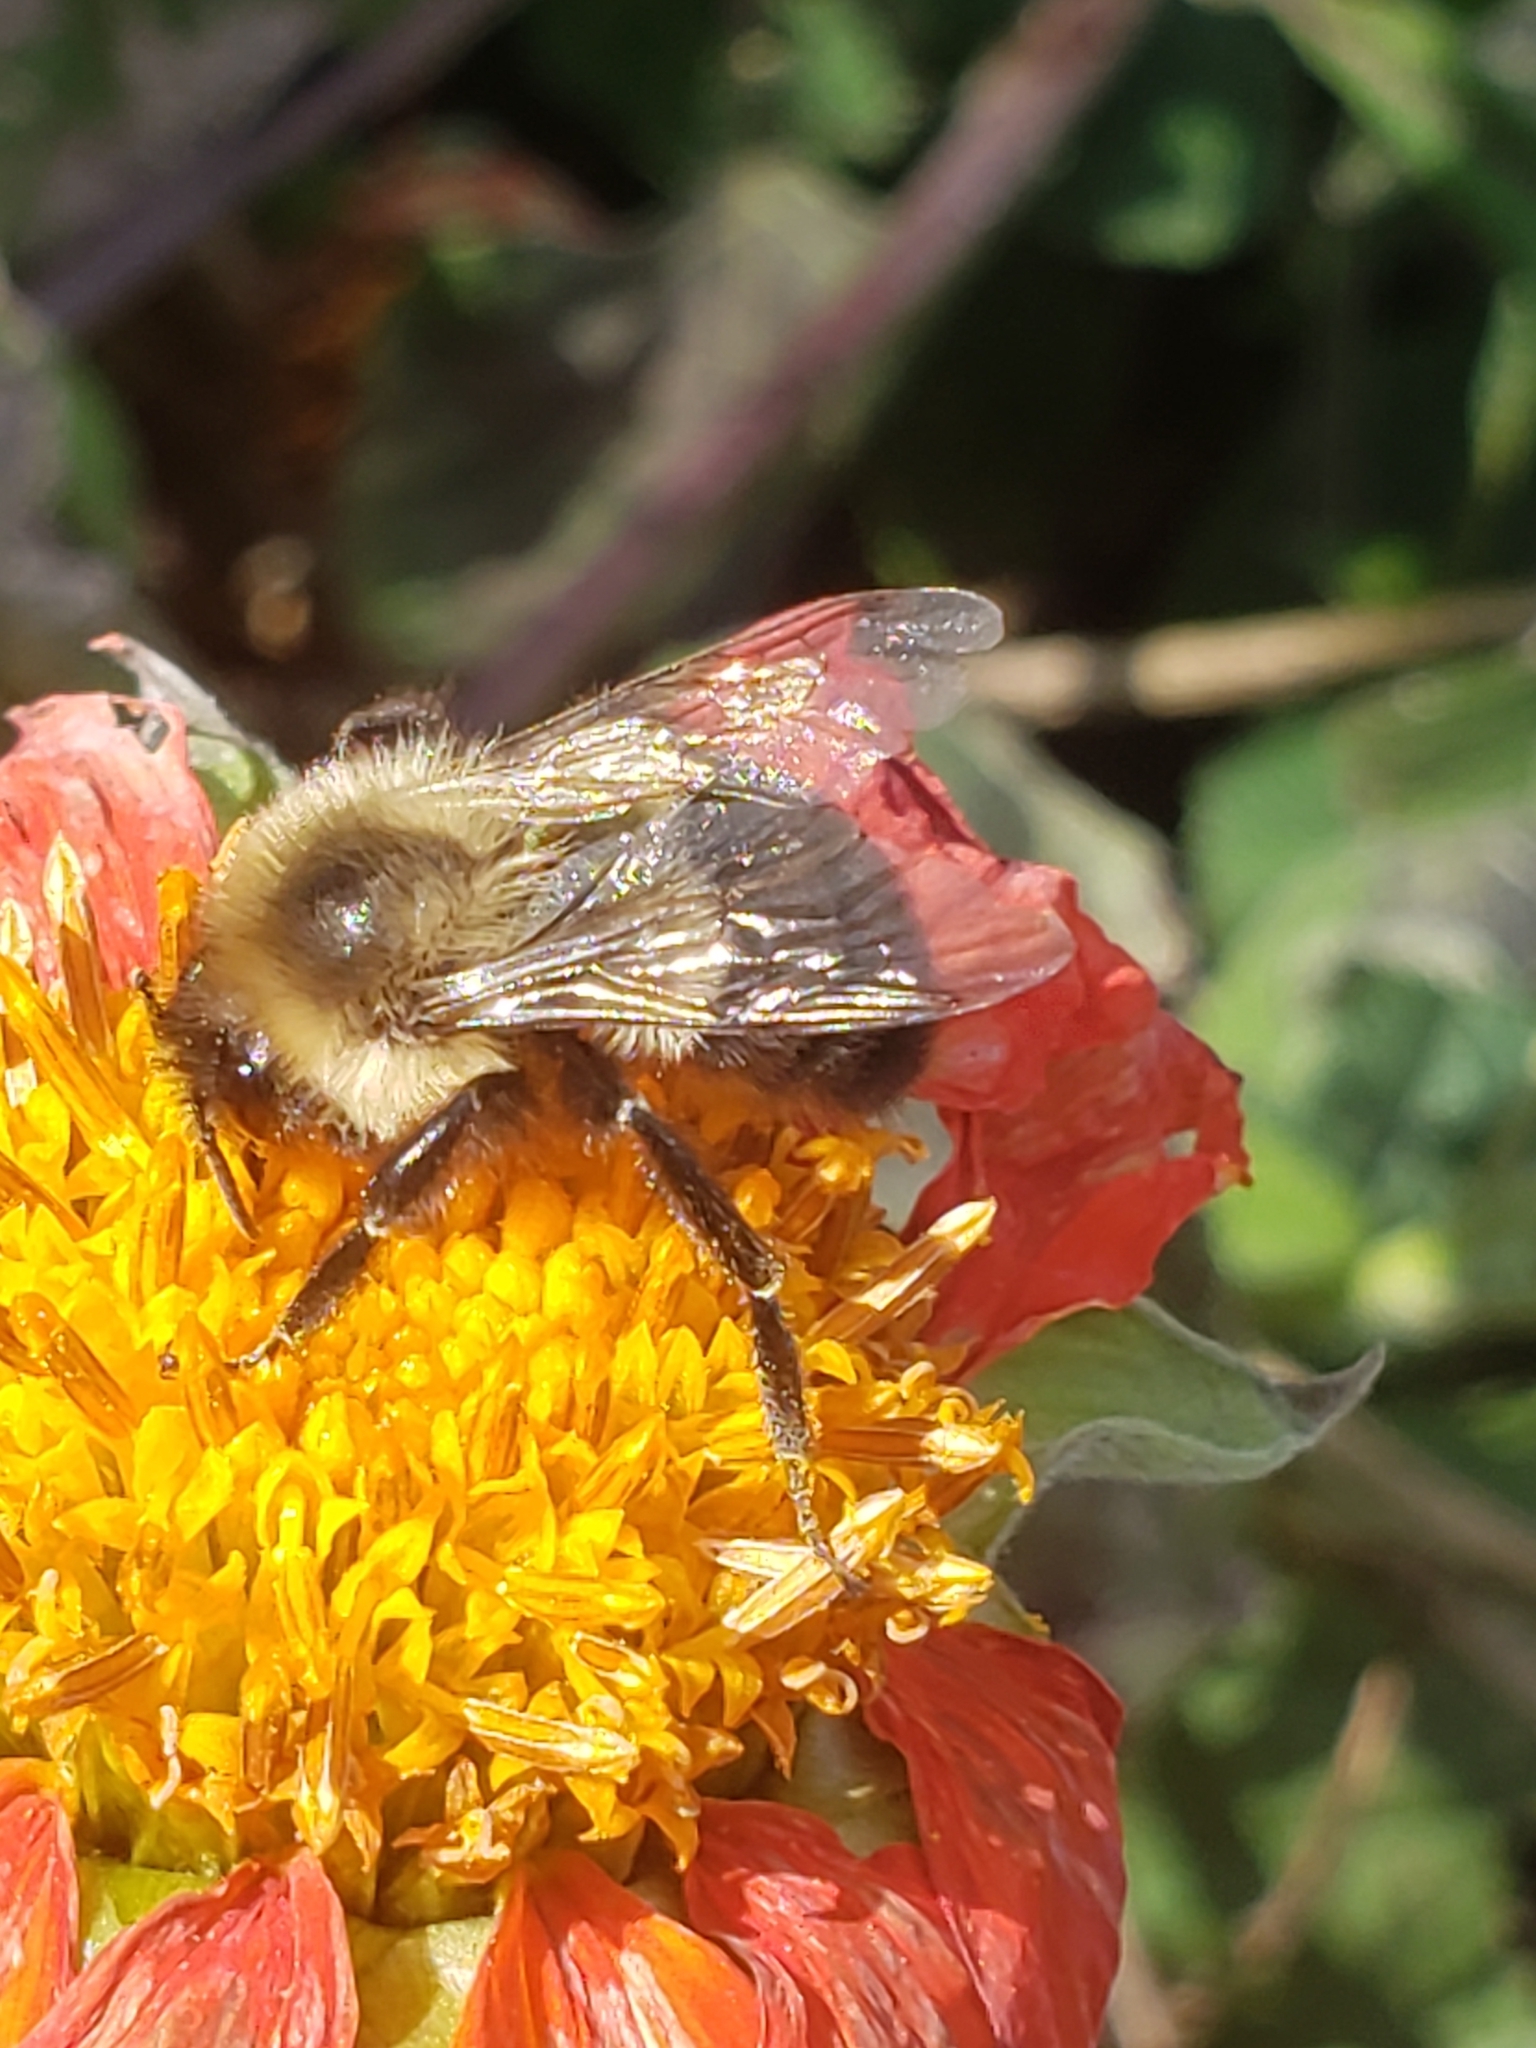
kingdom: Animalia
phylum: Arthropoda
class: Insecta
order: Hymenoptera
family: Apidae
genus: Bombus
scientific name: Bombus impatiens
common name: Common eastern bumble bee
